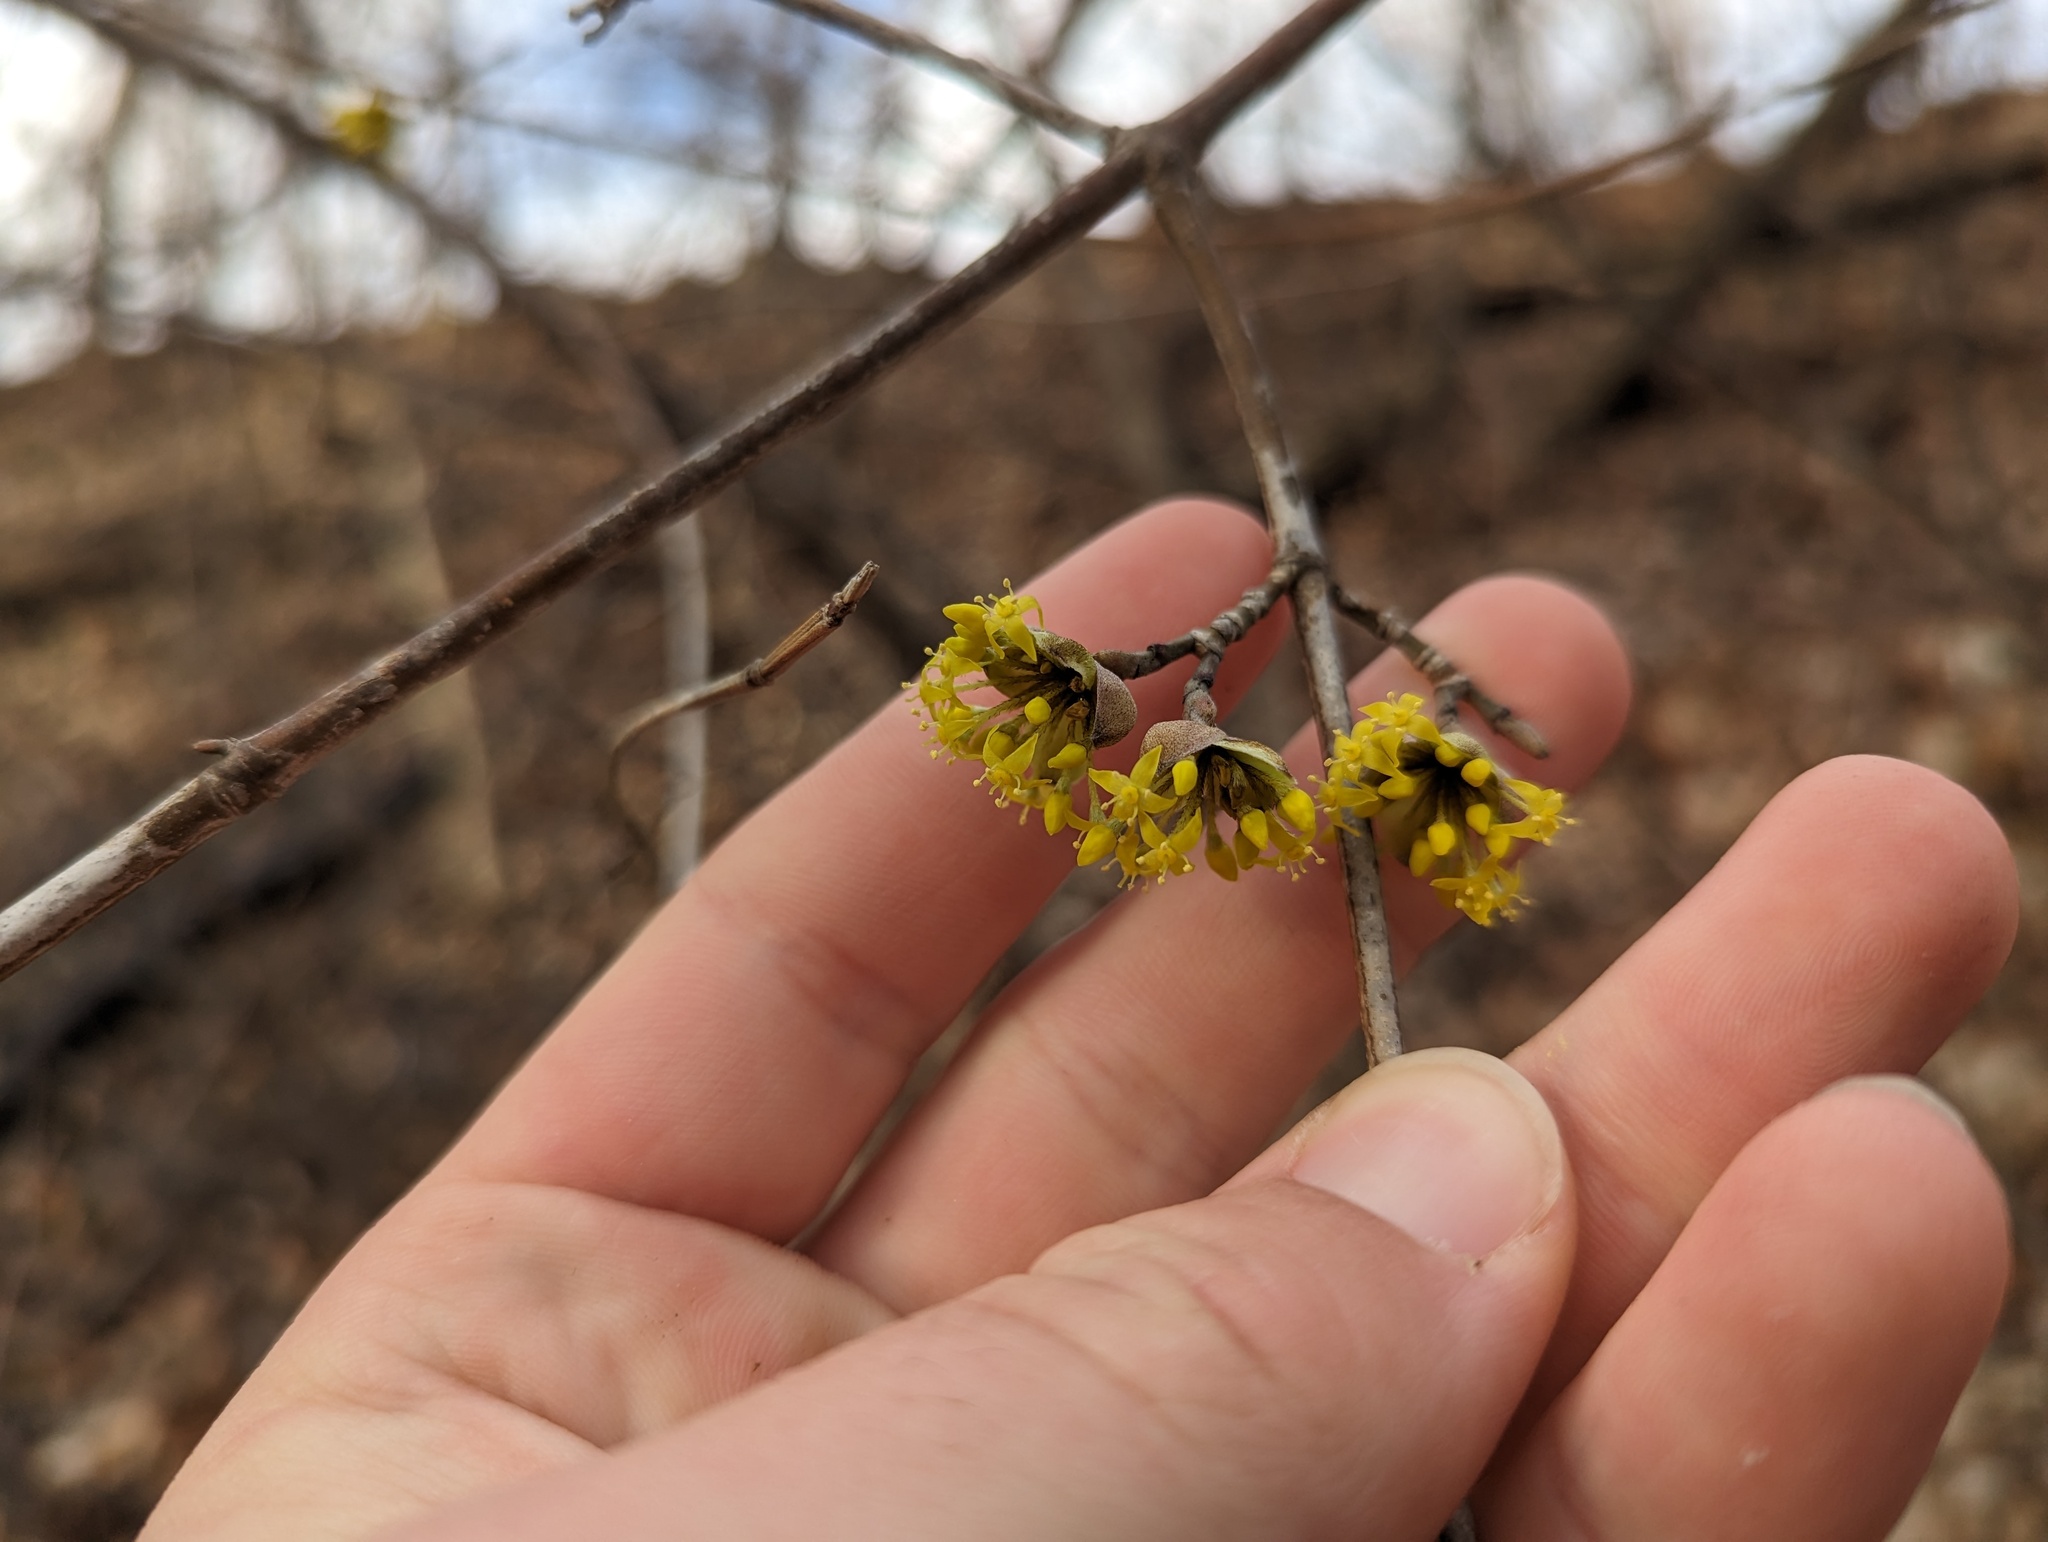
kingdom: Plantae
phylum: Tracheophyta
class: Magnoliopsida
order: Cornales
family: Cornaceae
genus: Cornus
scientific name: Cornus mas
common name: Cornelian-cherry
